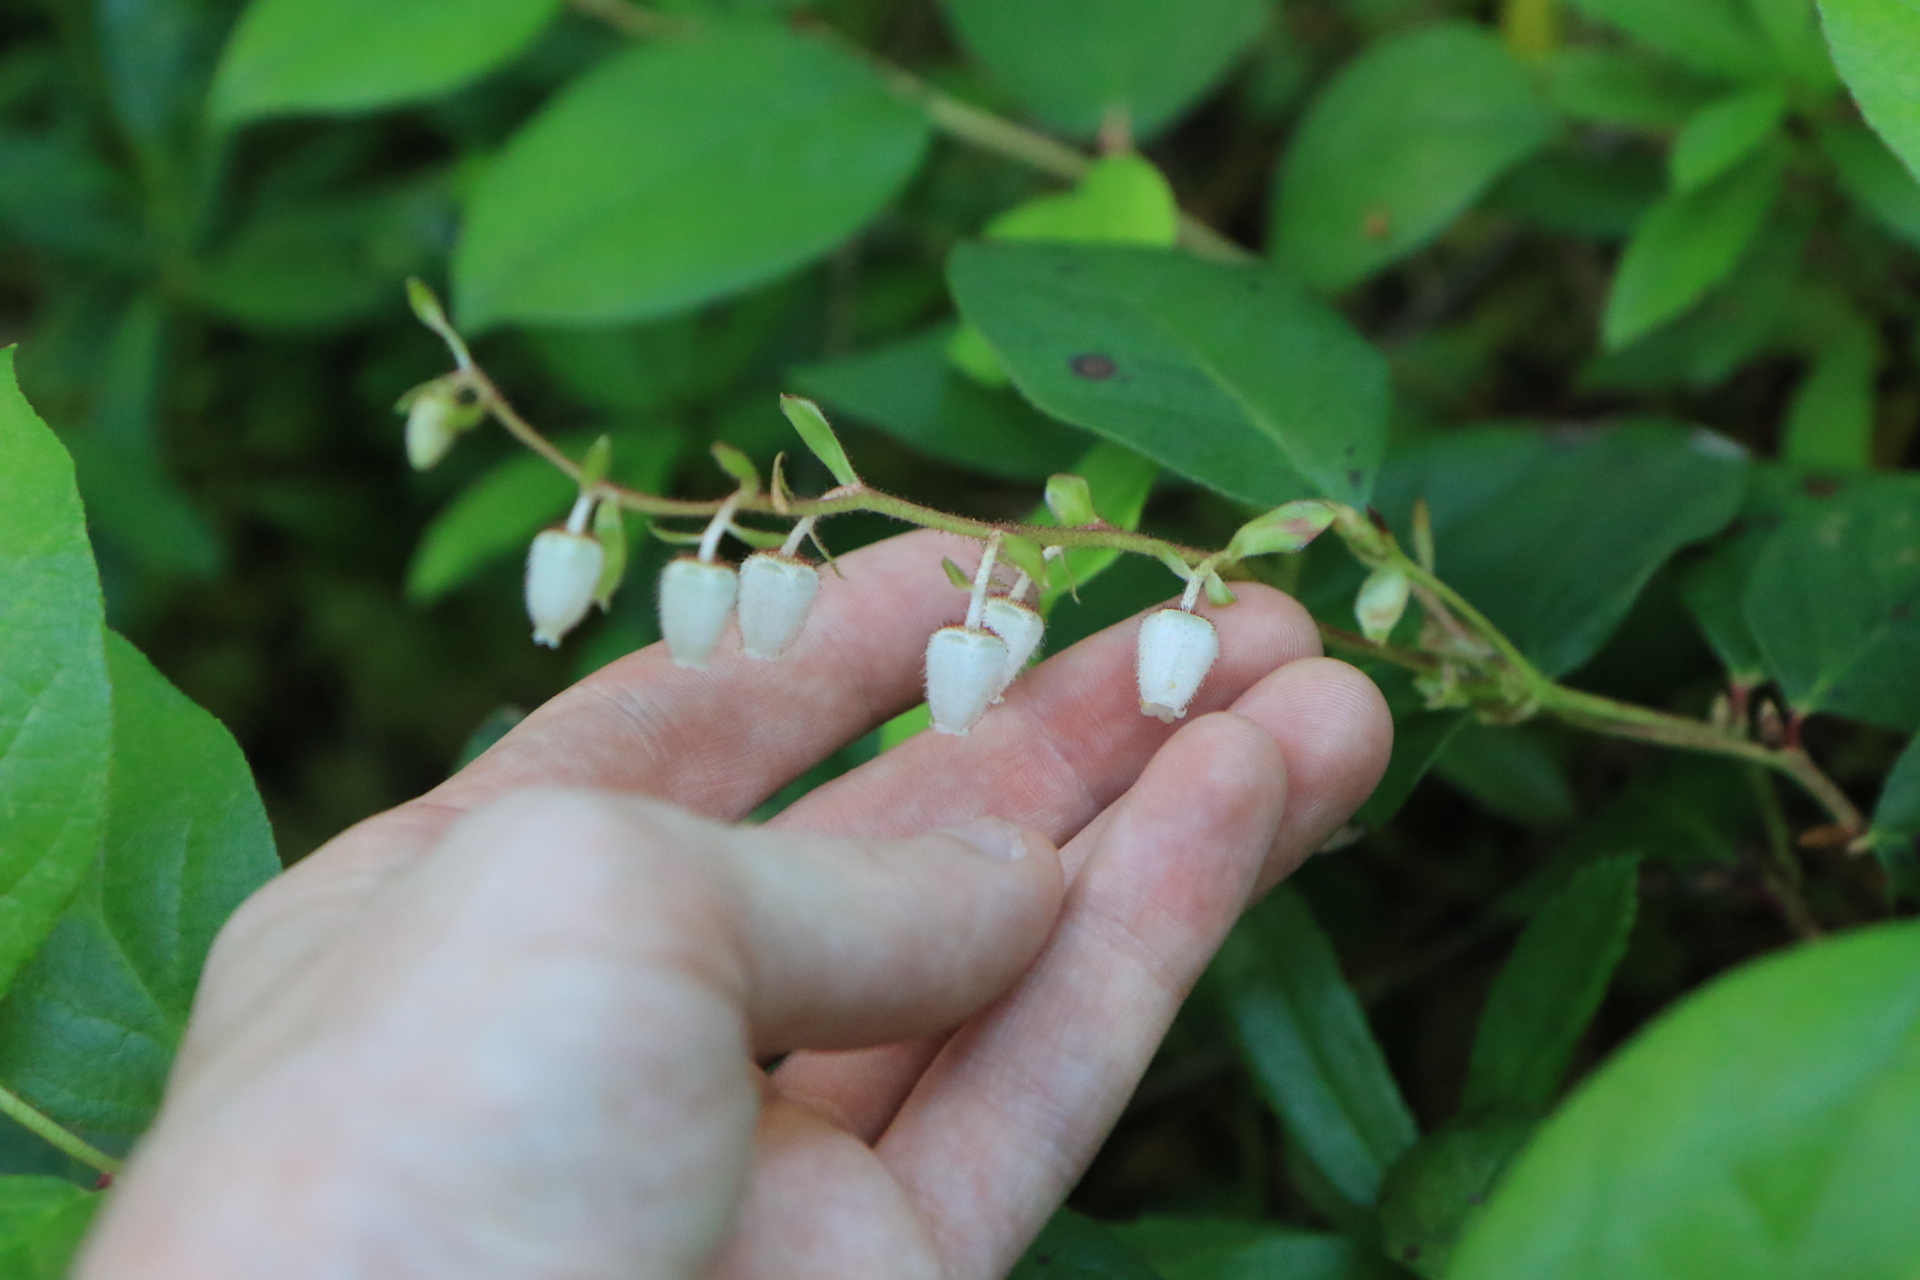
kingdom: Plantae
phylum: Tracheophyta
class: Magnoliopsida
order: Ericales
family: Ericaceae
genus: Gaultheria
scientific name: Gaultheria shallon
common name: Shallon
